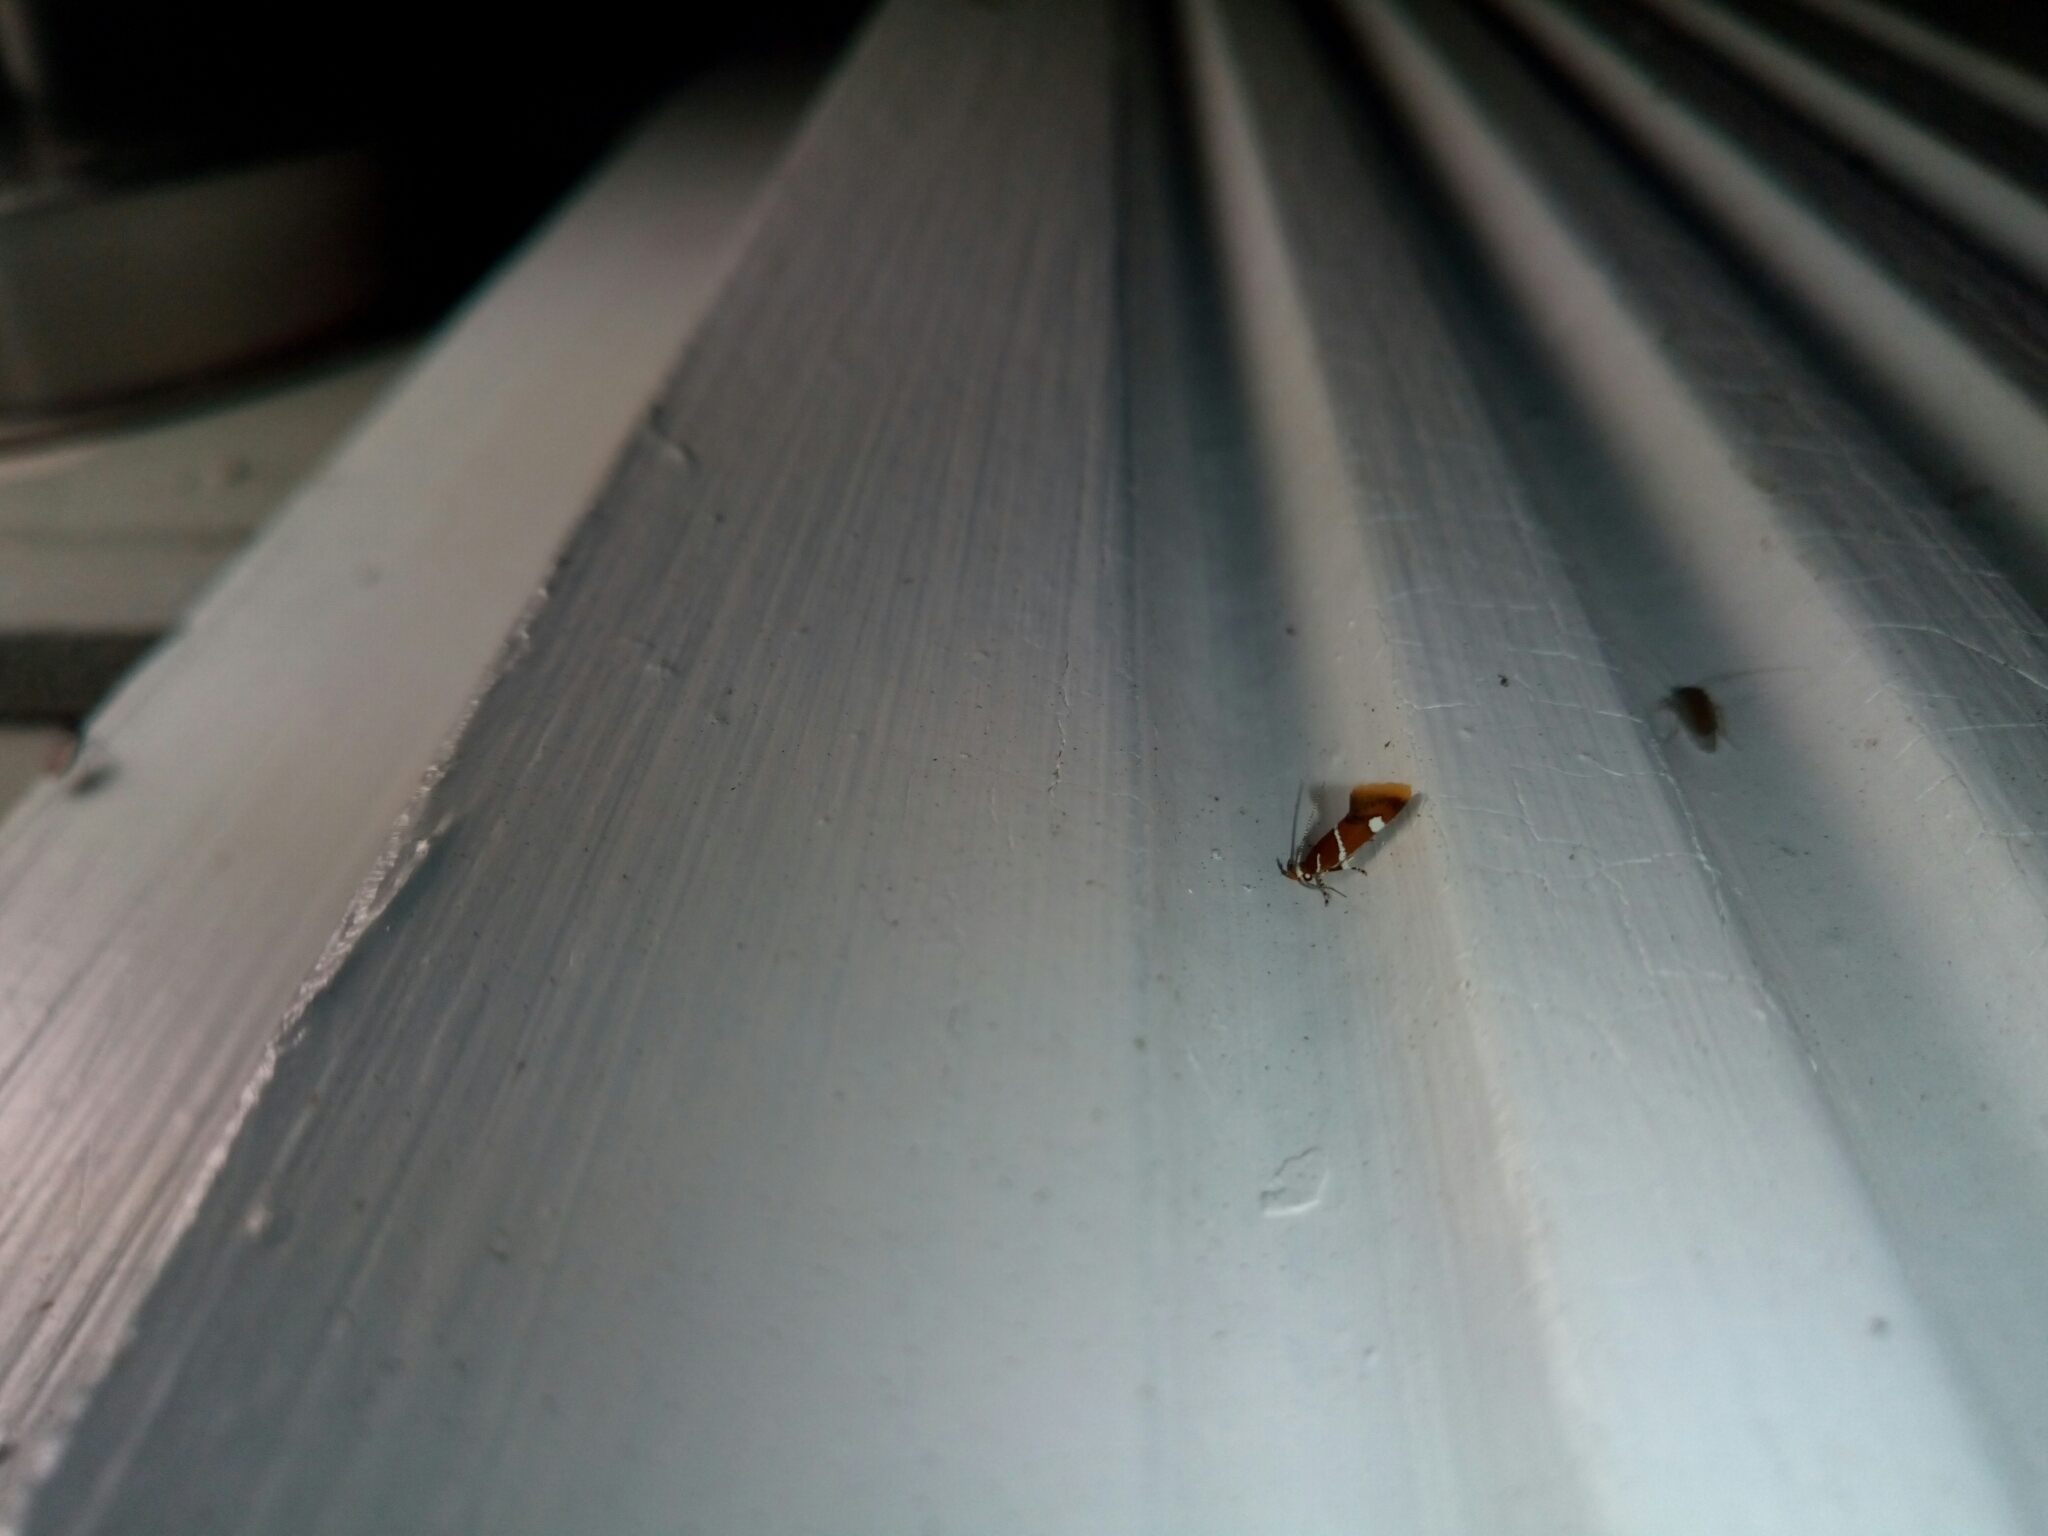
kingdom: Animalia
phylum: Arthropoda
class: Insecta
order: Lepidoptera
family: Oecophoridae
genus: Promalactis
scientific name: Promalactis suzukiella
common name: Moth
